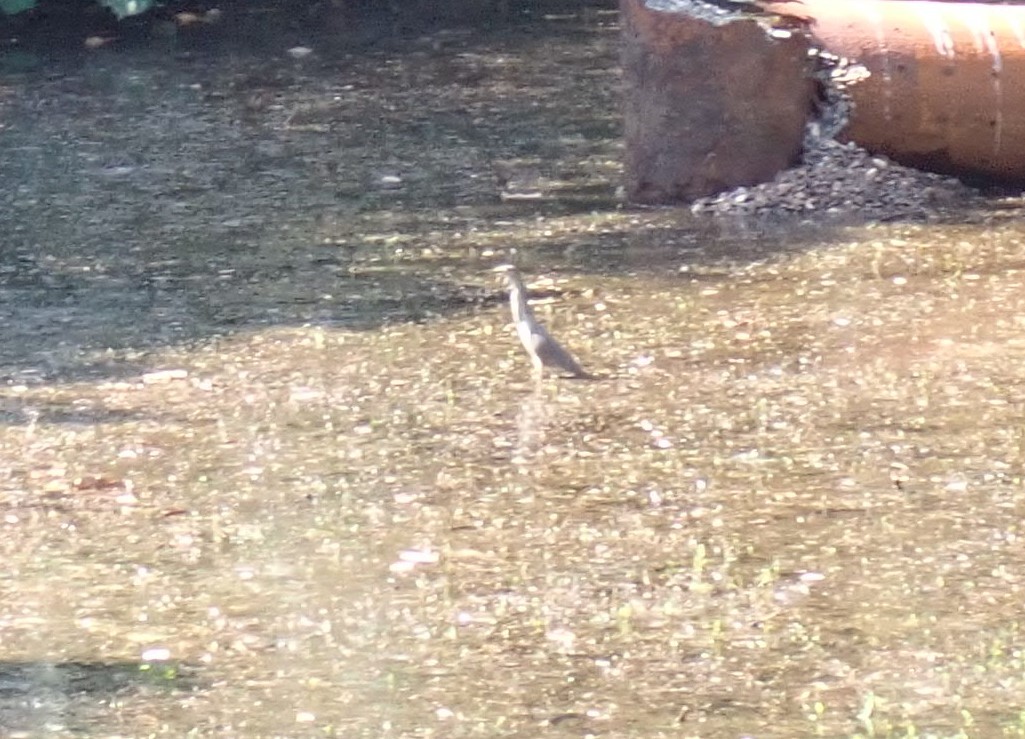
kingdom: Animalia
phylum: Chordata
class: Aves
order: Pelecaniformes
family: Ardeidae
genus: Ardeola
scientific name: Ardeola
